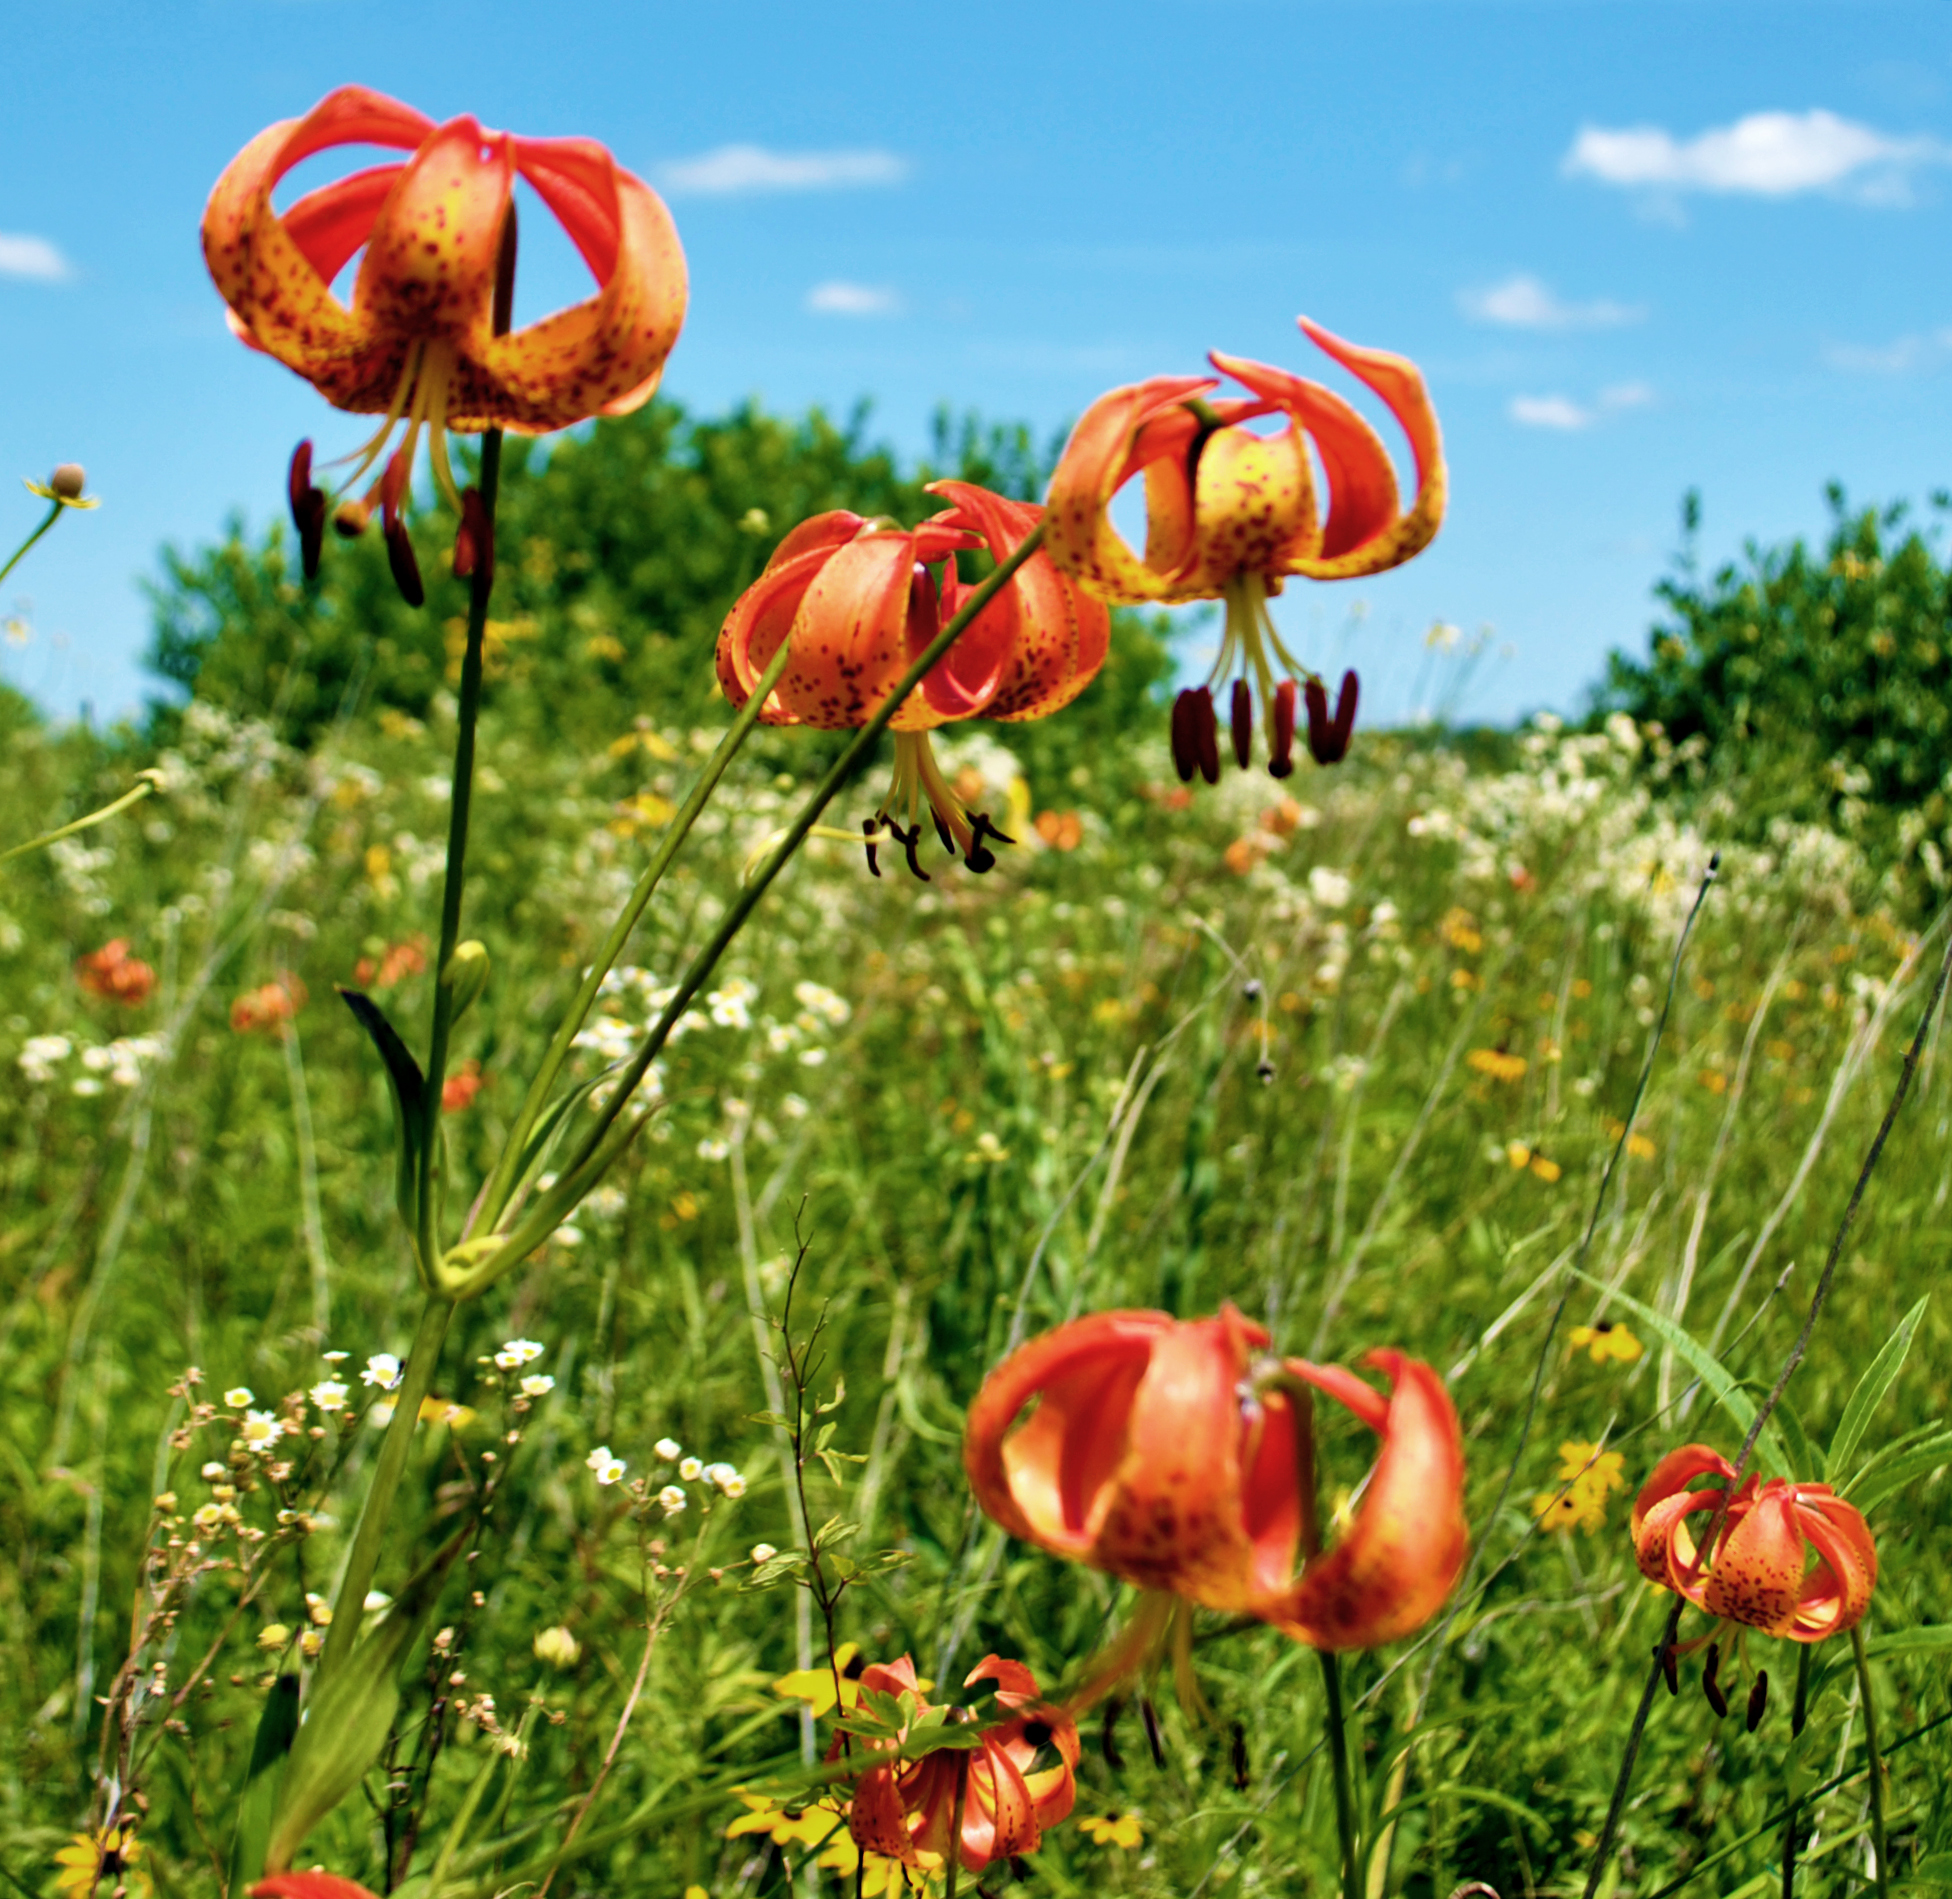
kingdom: Plantae
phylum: Tracheophyta
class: Liliopsida
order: Liliales
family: Liliaceae
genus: Lilium
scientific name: Lilium michiganense
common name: Michigan lily
